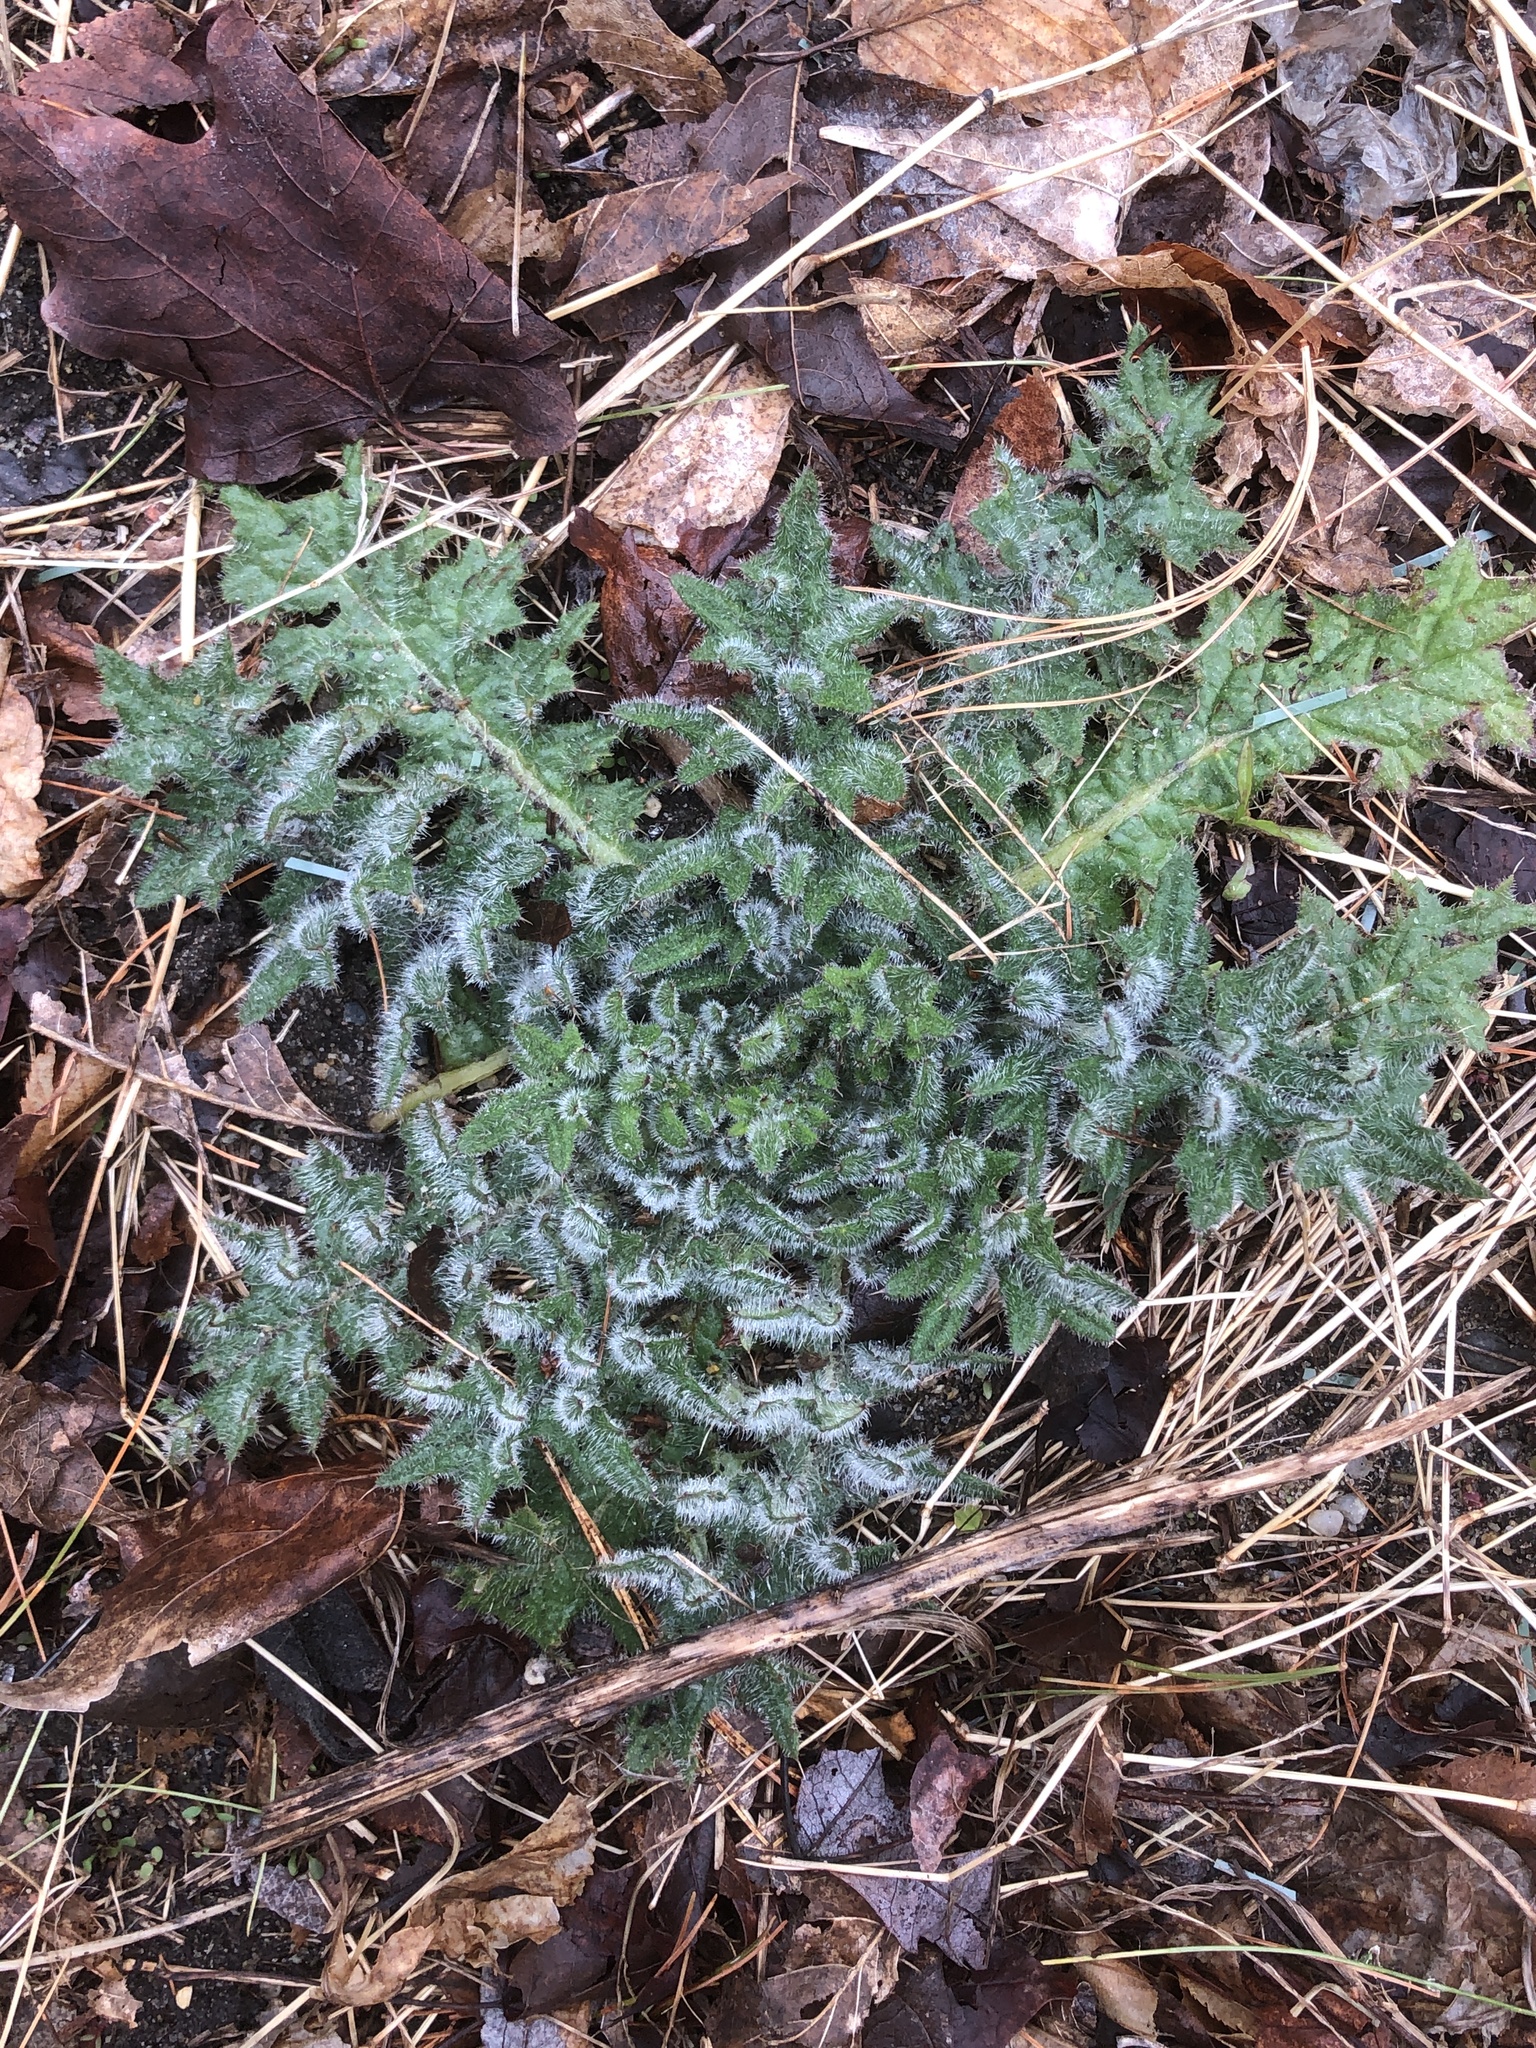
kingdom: Plantae
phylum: Tracheophyta
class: Magnoliopsida
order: Asterales
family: Asteraceae
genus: Cirsium
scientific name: Cirsium vulgare
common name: Bull thistle
